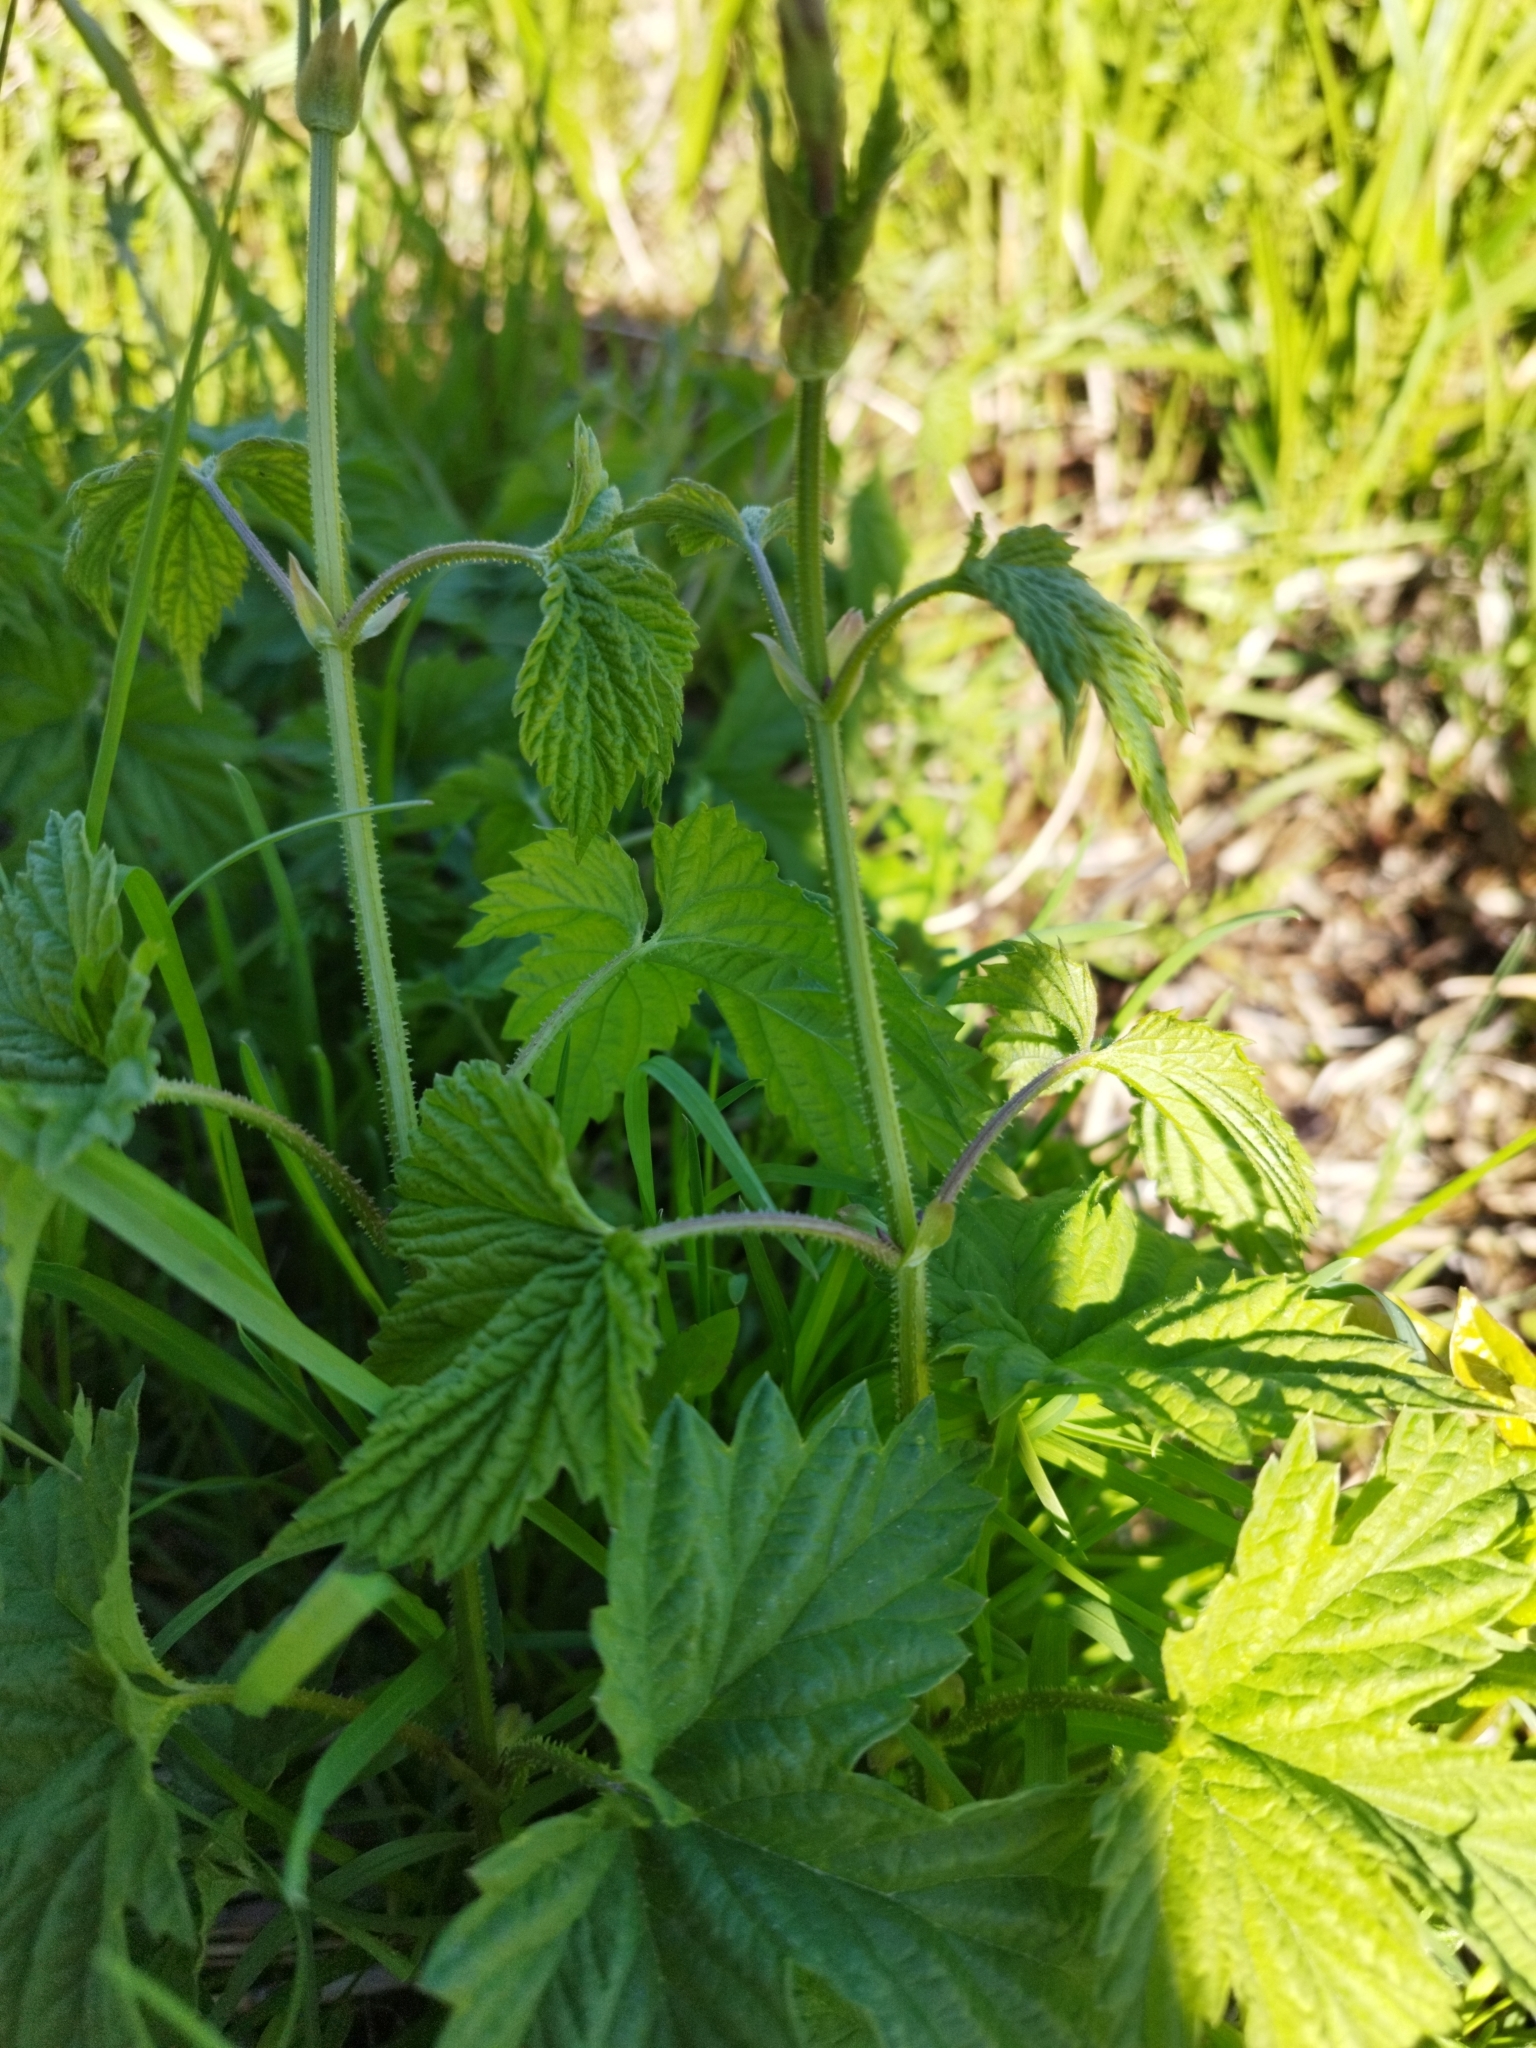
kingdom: Plantae
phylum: Tracheophyta
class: Magnoliopsida
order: Rosales
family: Cannabaceae
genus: Humulus
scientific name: Humulus lupulus
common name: Hop
